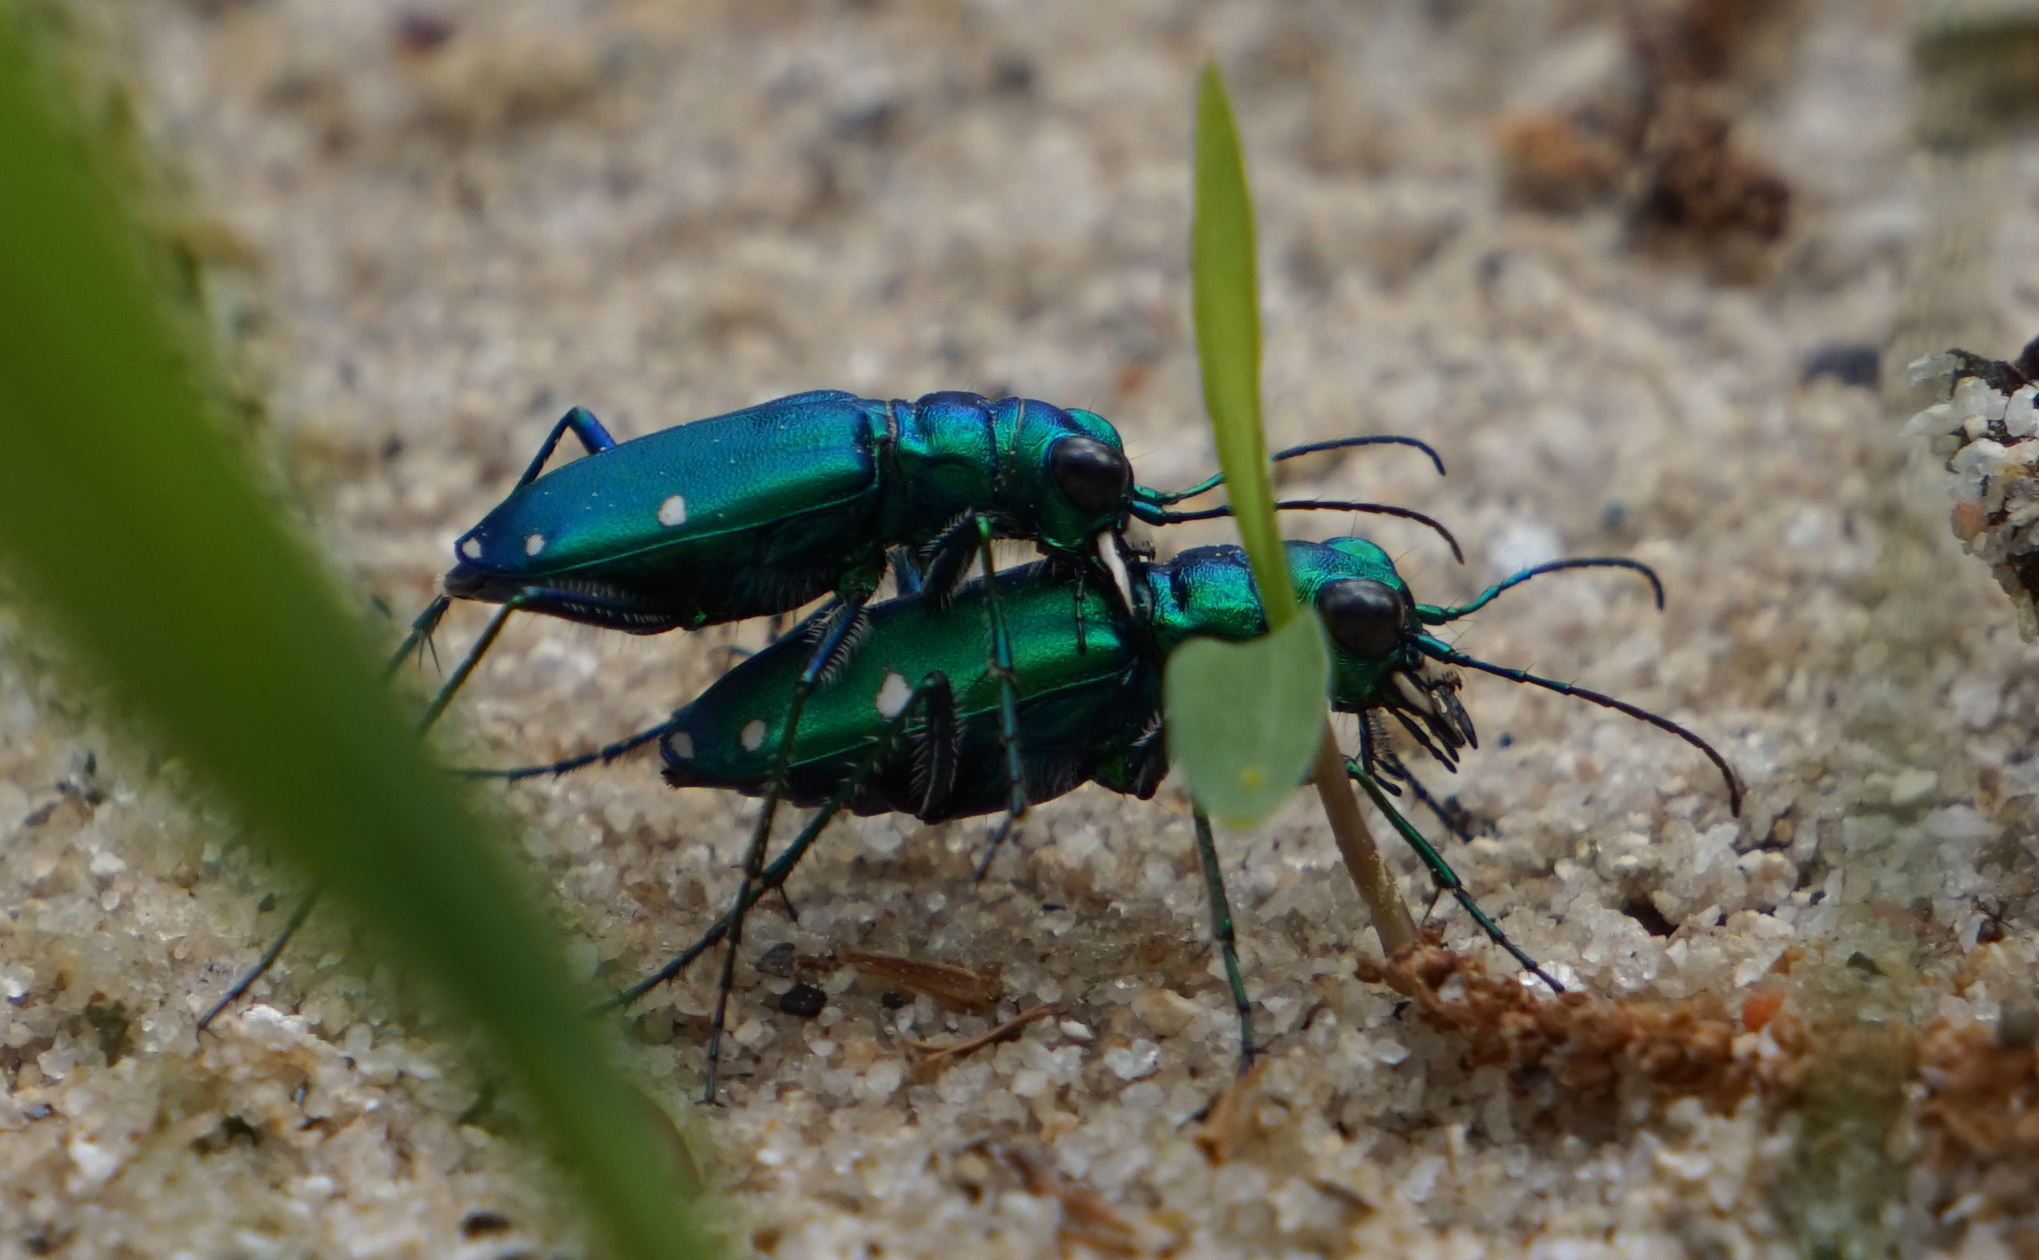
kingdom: Animalia
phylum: Arthropoda
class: Insecta
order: Coleoptera
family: Carabidae
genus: Cicindela
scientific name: Cicindela sexguttata
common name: Six-spotted tiger beetle
